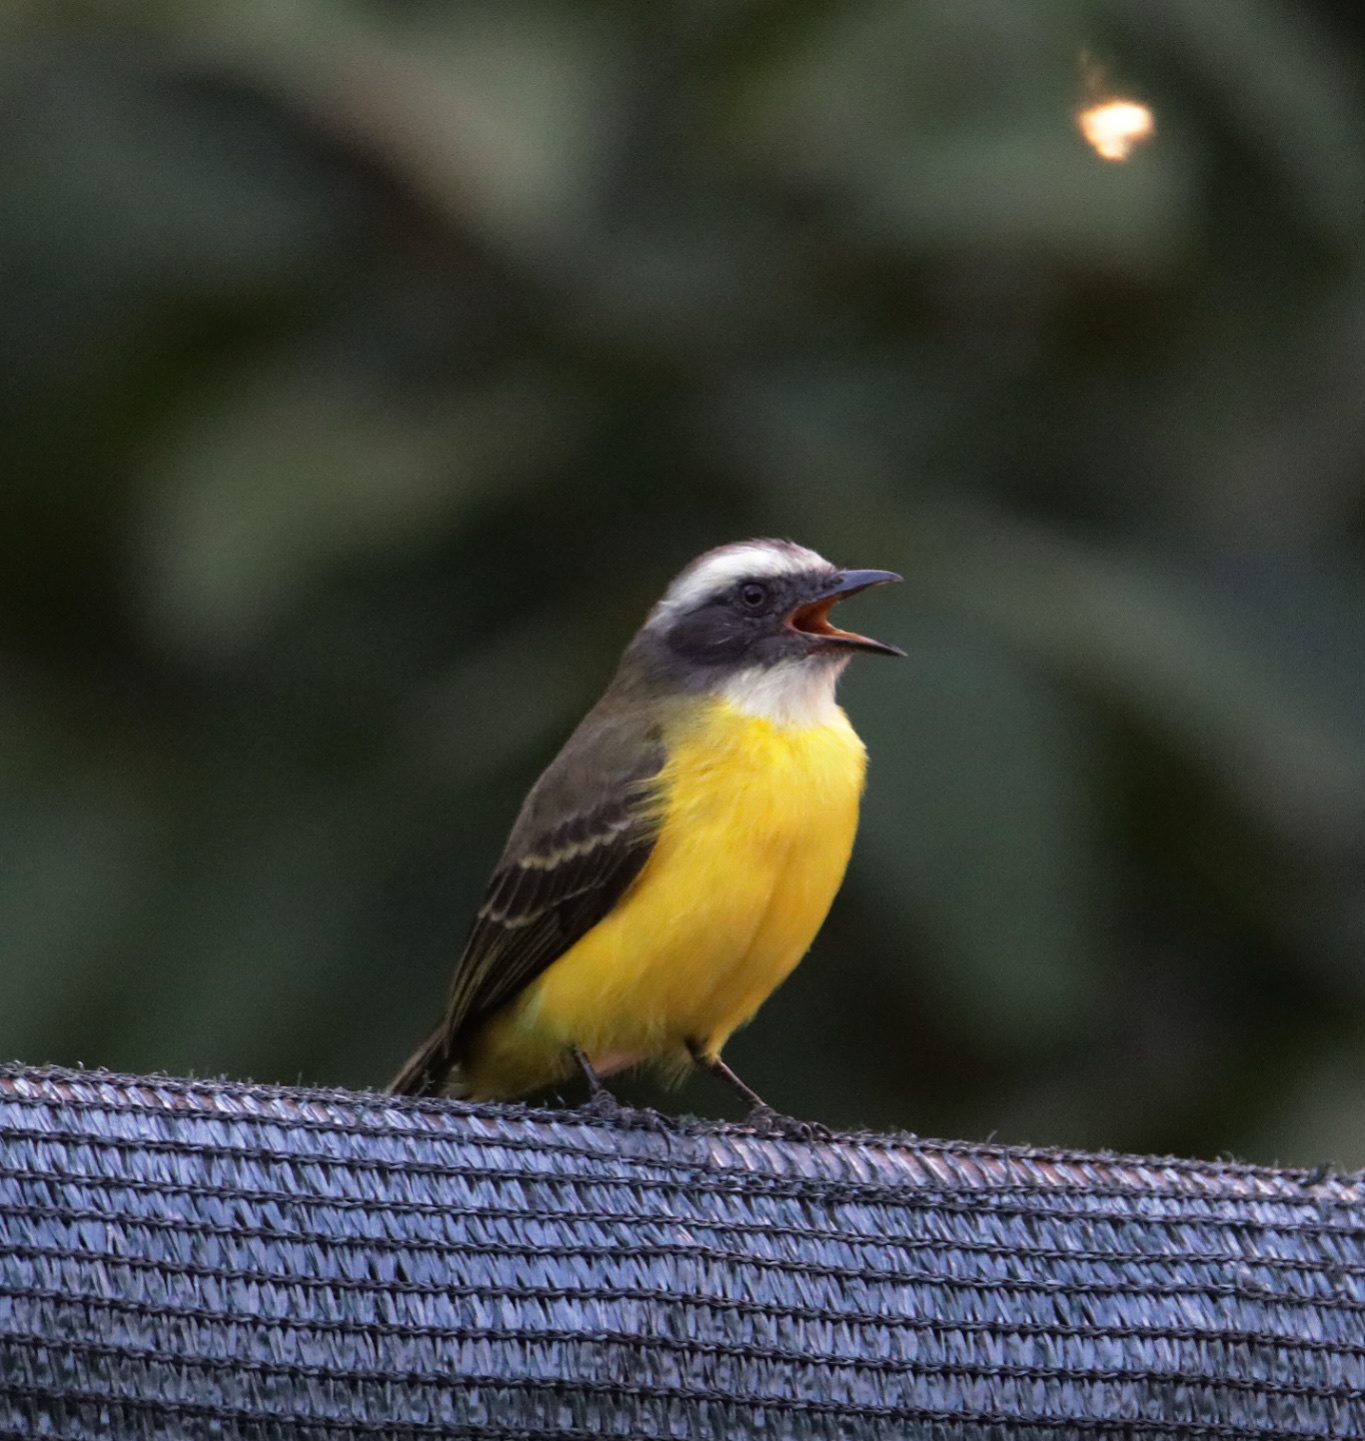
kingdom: Animalia
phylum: Chordata
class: Aves
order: Passeriformes
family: Tyrannidae
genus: Myiozetetes
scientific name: Myiozetetes similis
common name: Social flycatcher
